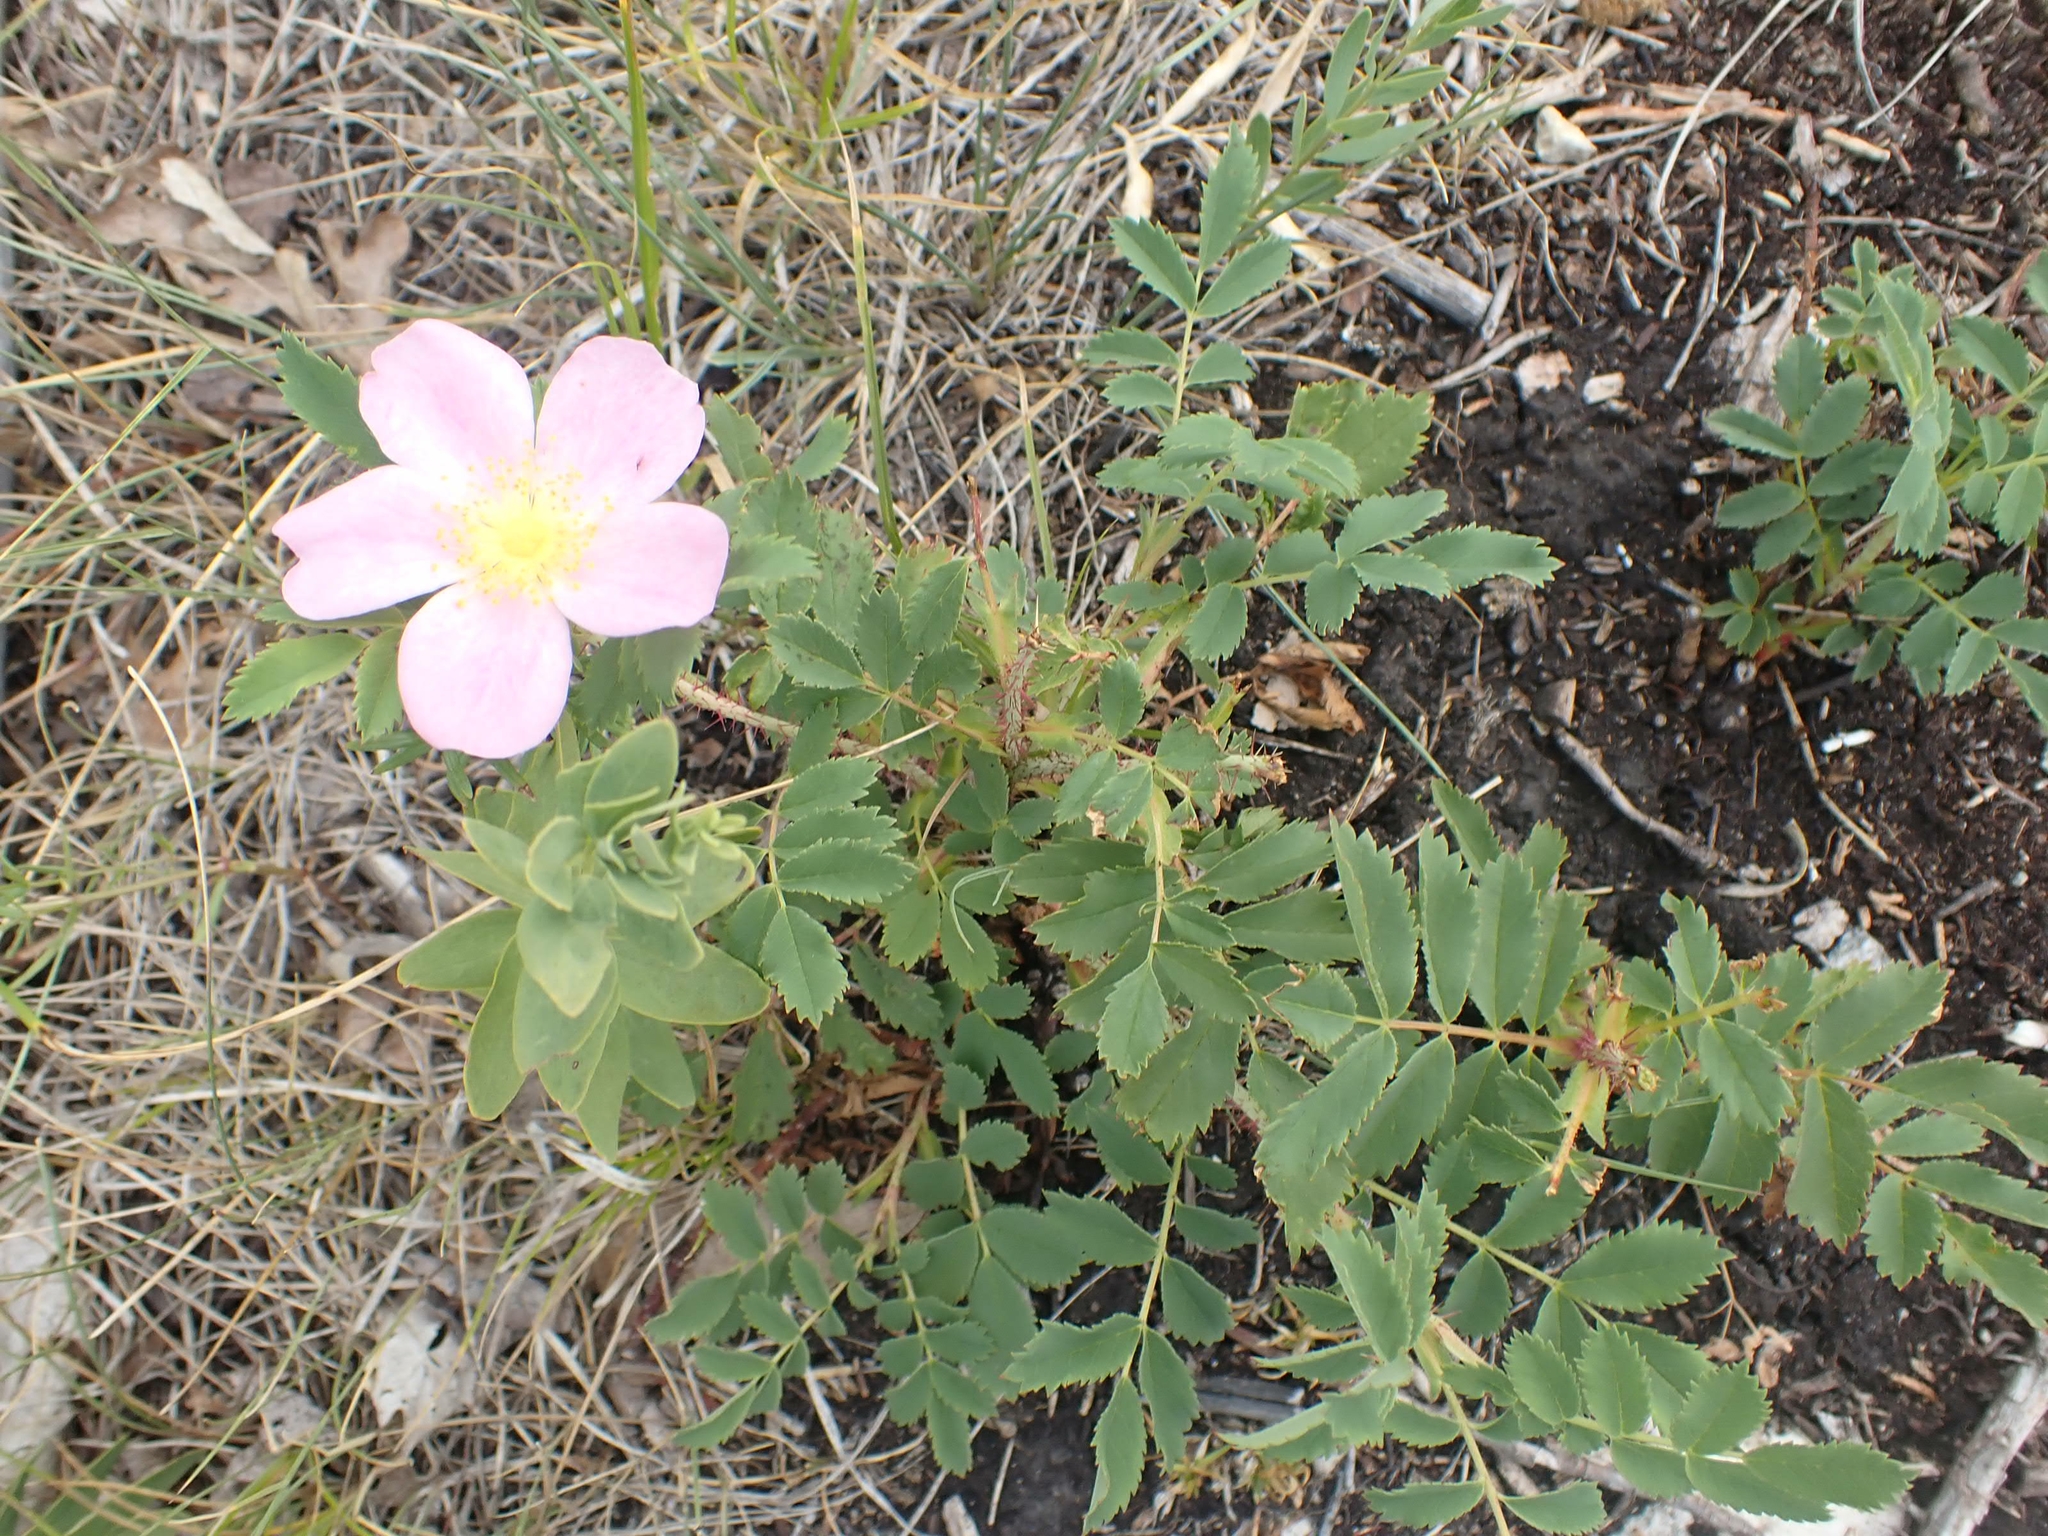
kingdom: Plantae
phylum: Tracheophyta
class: Magnoliopsida
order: Rosales
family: Rosaceae
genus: Rosa
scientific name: Rosa arkansana
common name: Prairie rose
